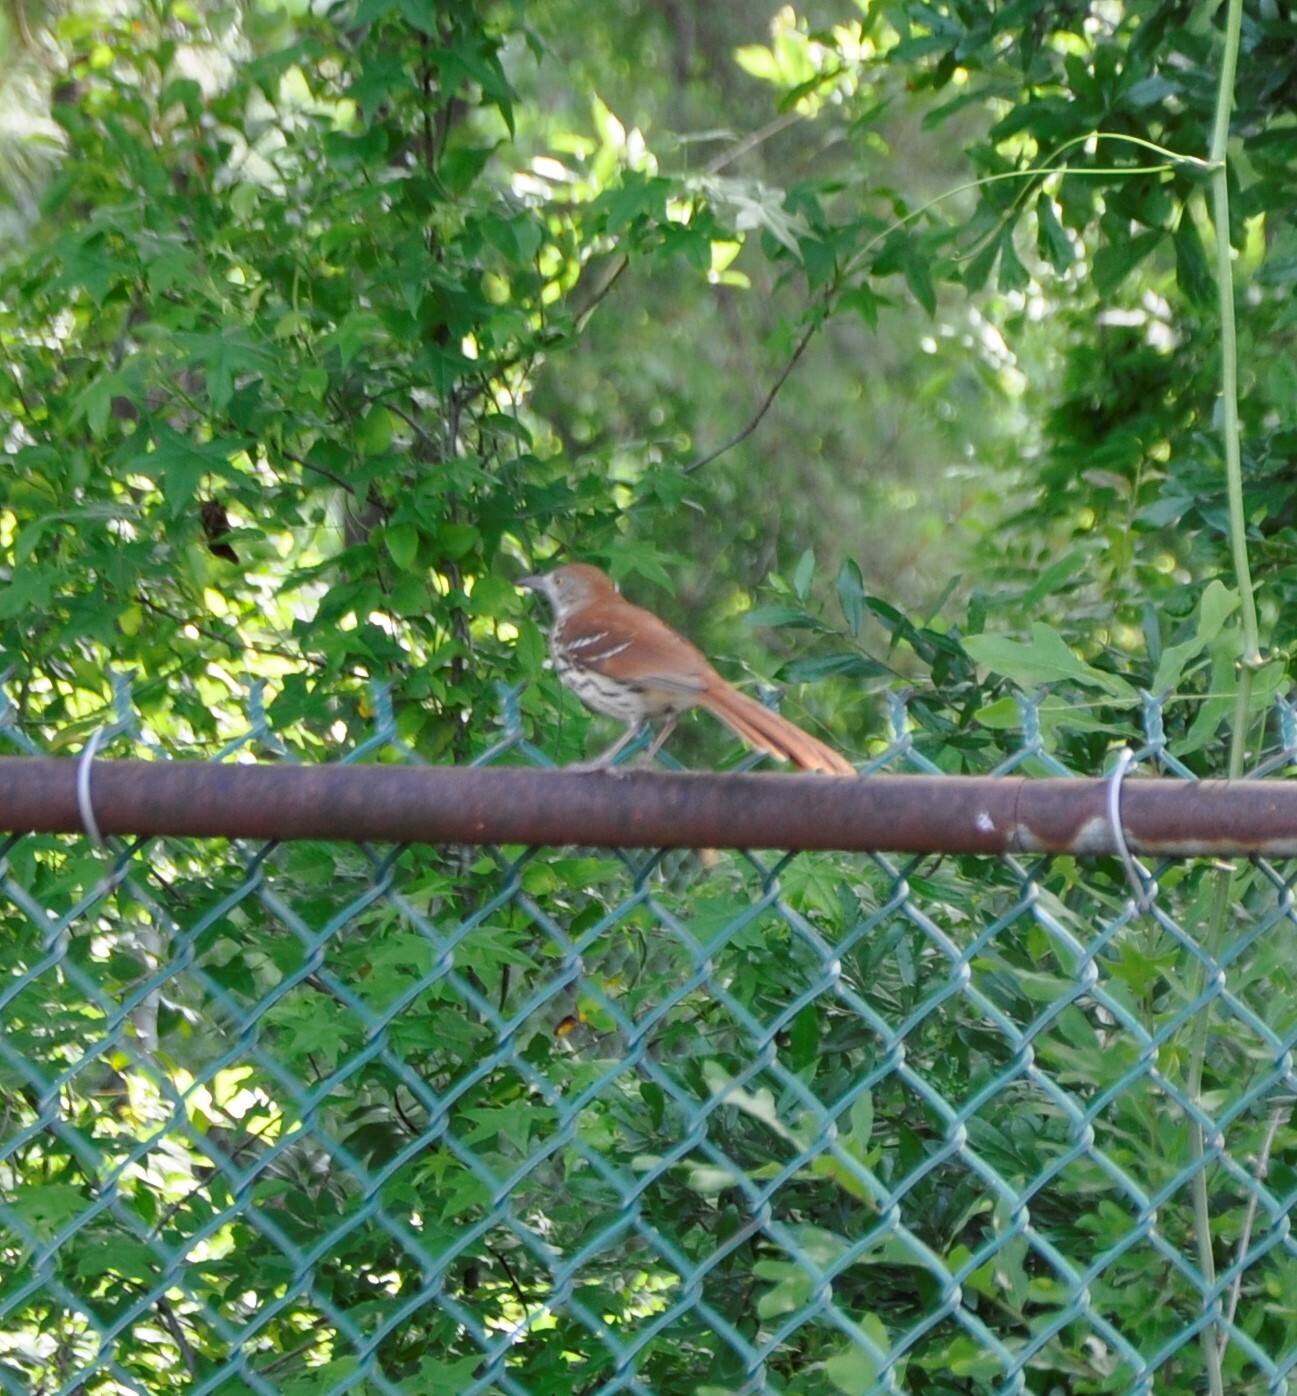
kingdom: Animalia
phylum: Chordata
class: Aves
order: Passeriformes
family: Mimidae
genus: Toxostoma
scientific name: Toxostoma rufum
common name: Brown thrasher
